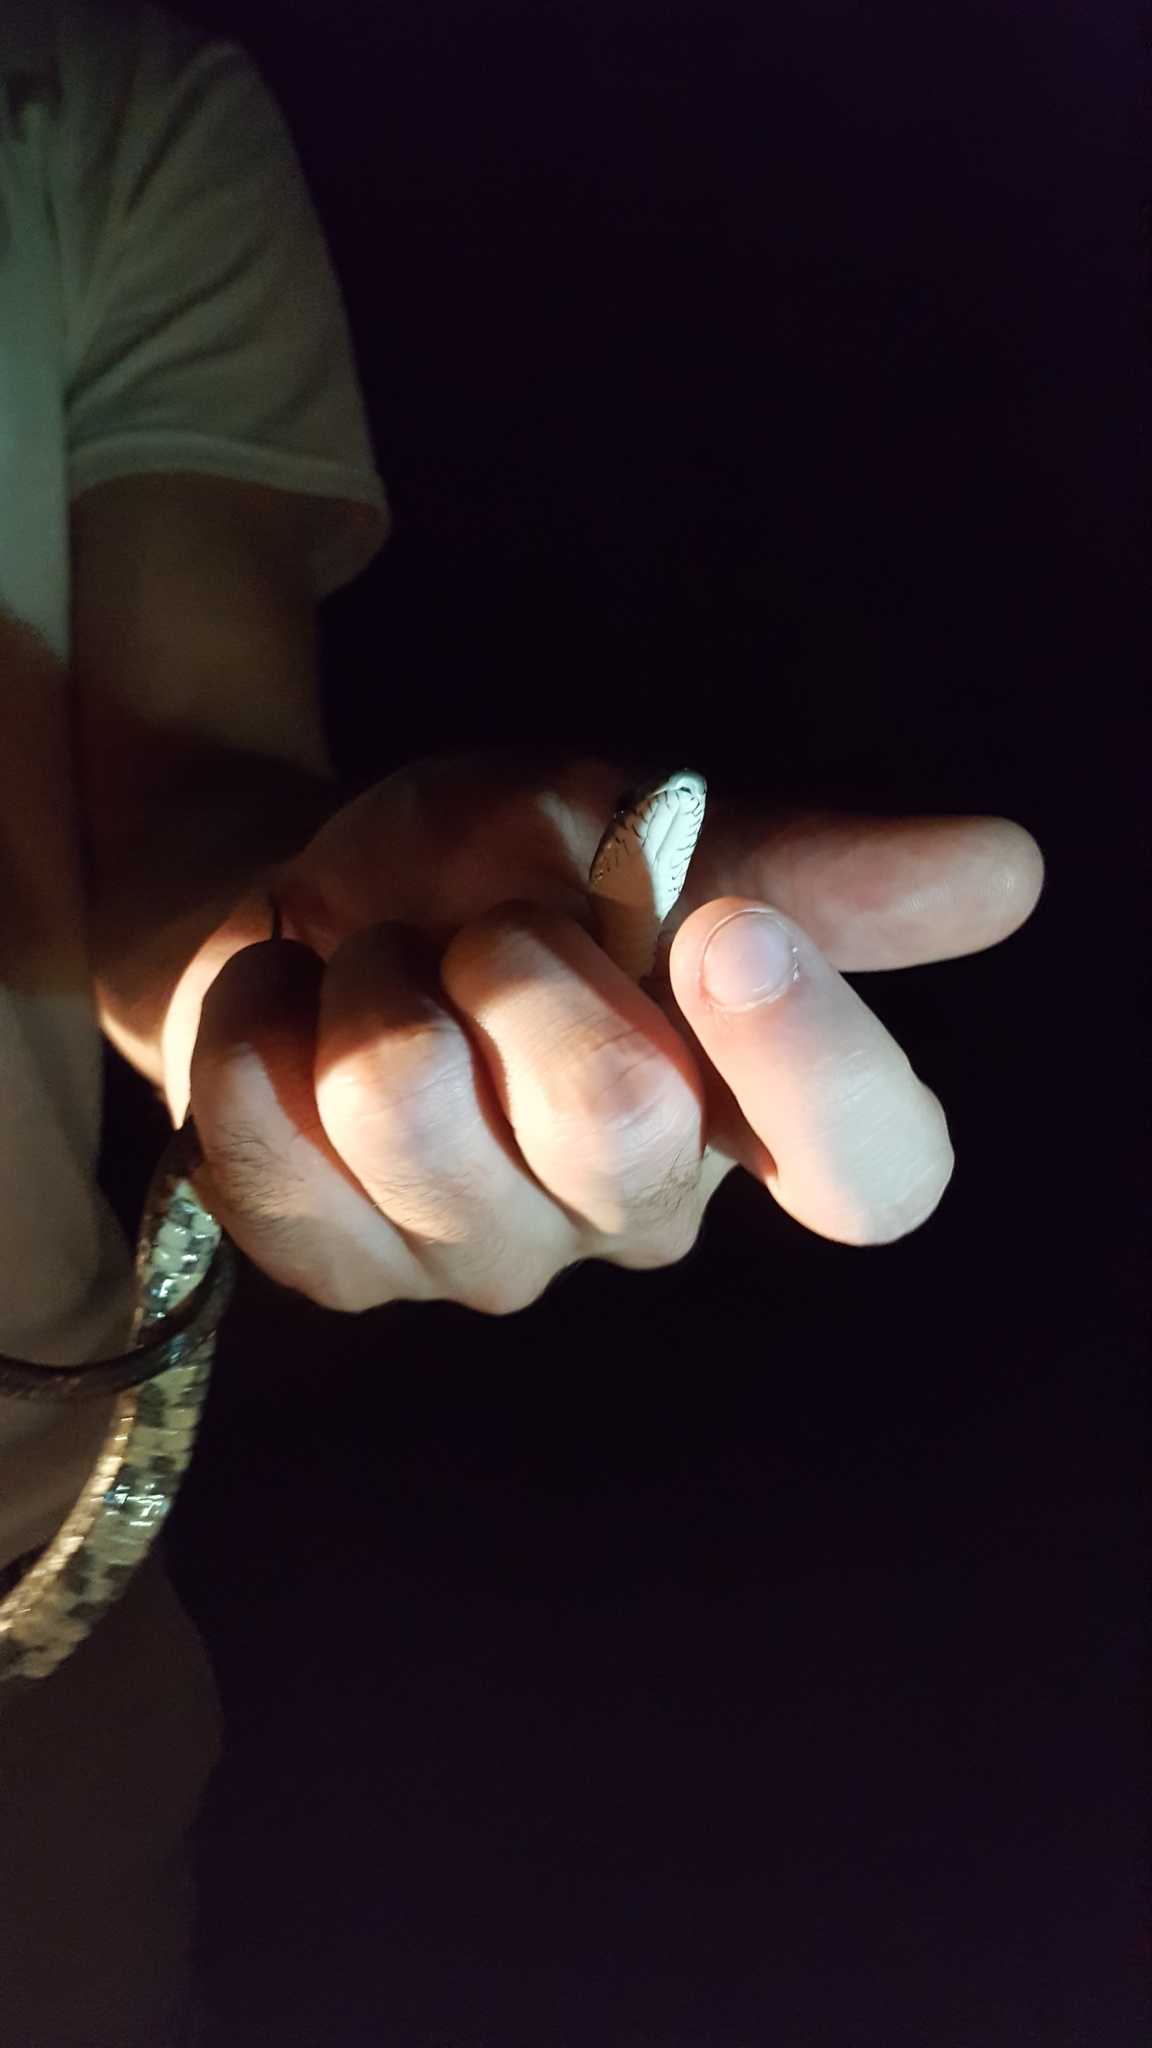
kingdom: Animalia
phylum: Chordata
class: Squamata
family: Colubridae
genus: Pantherophis
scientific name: Pantherophis alleghaniensis
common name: Eastern rat snake
